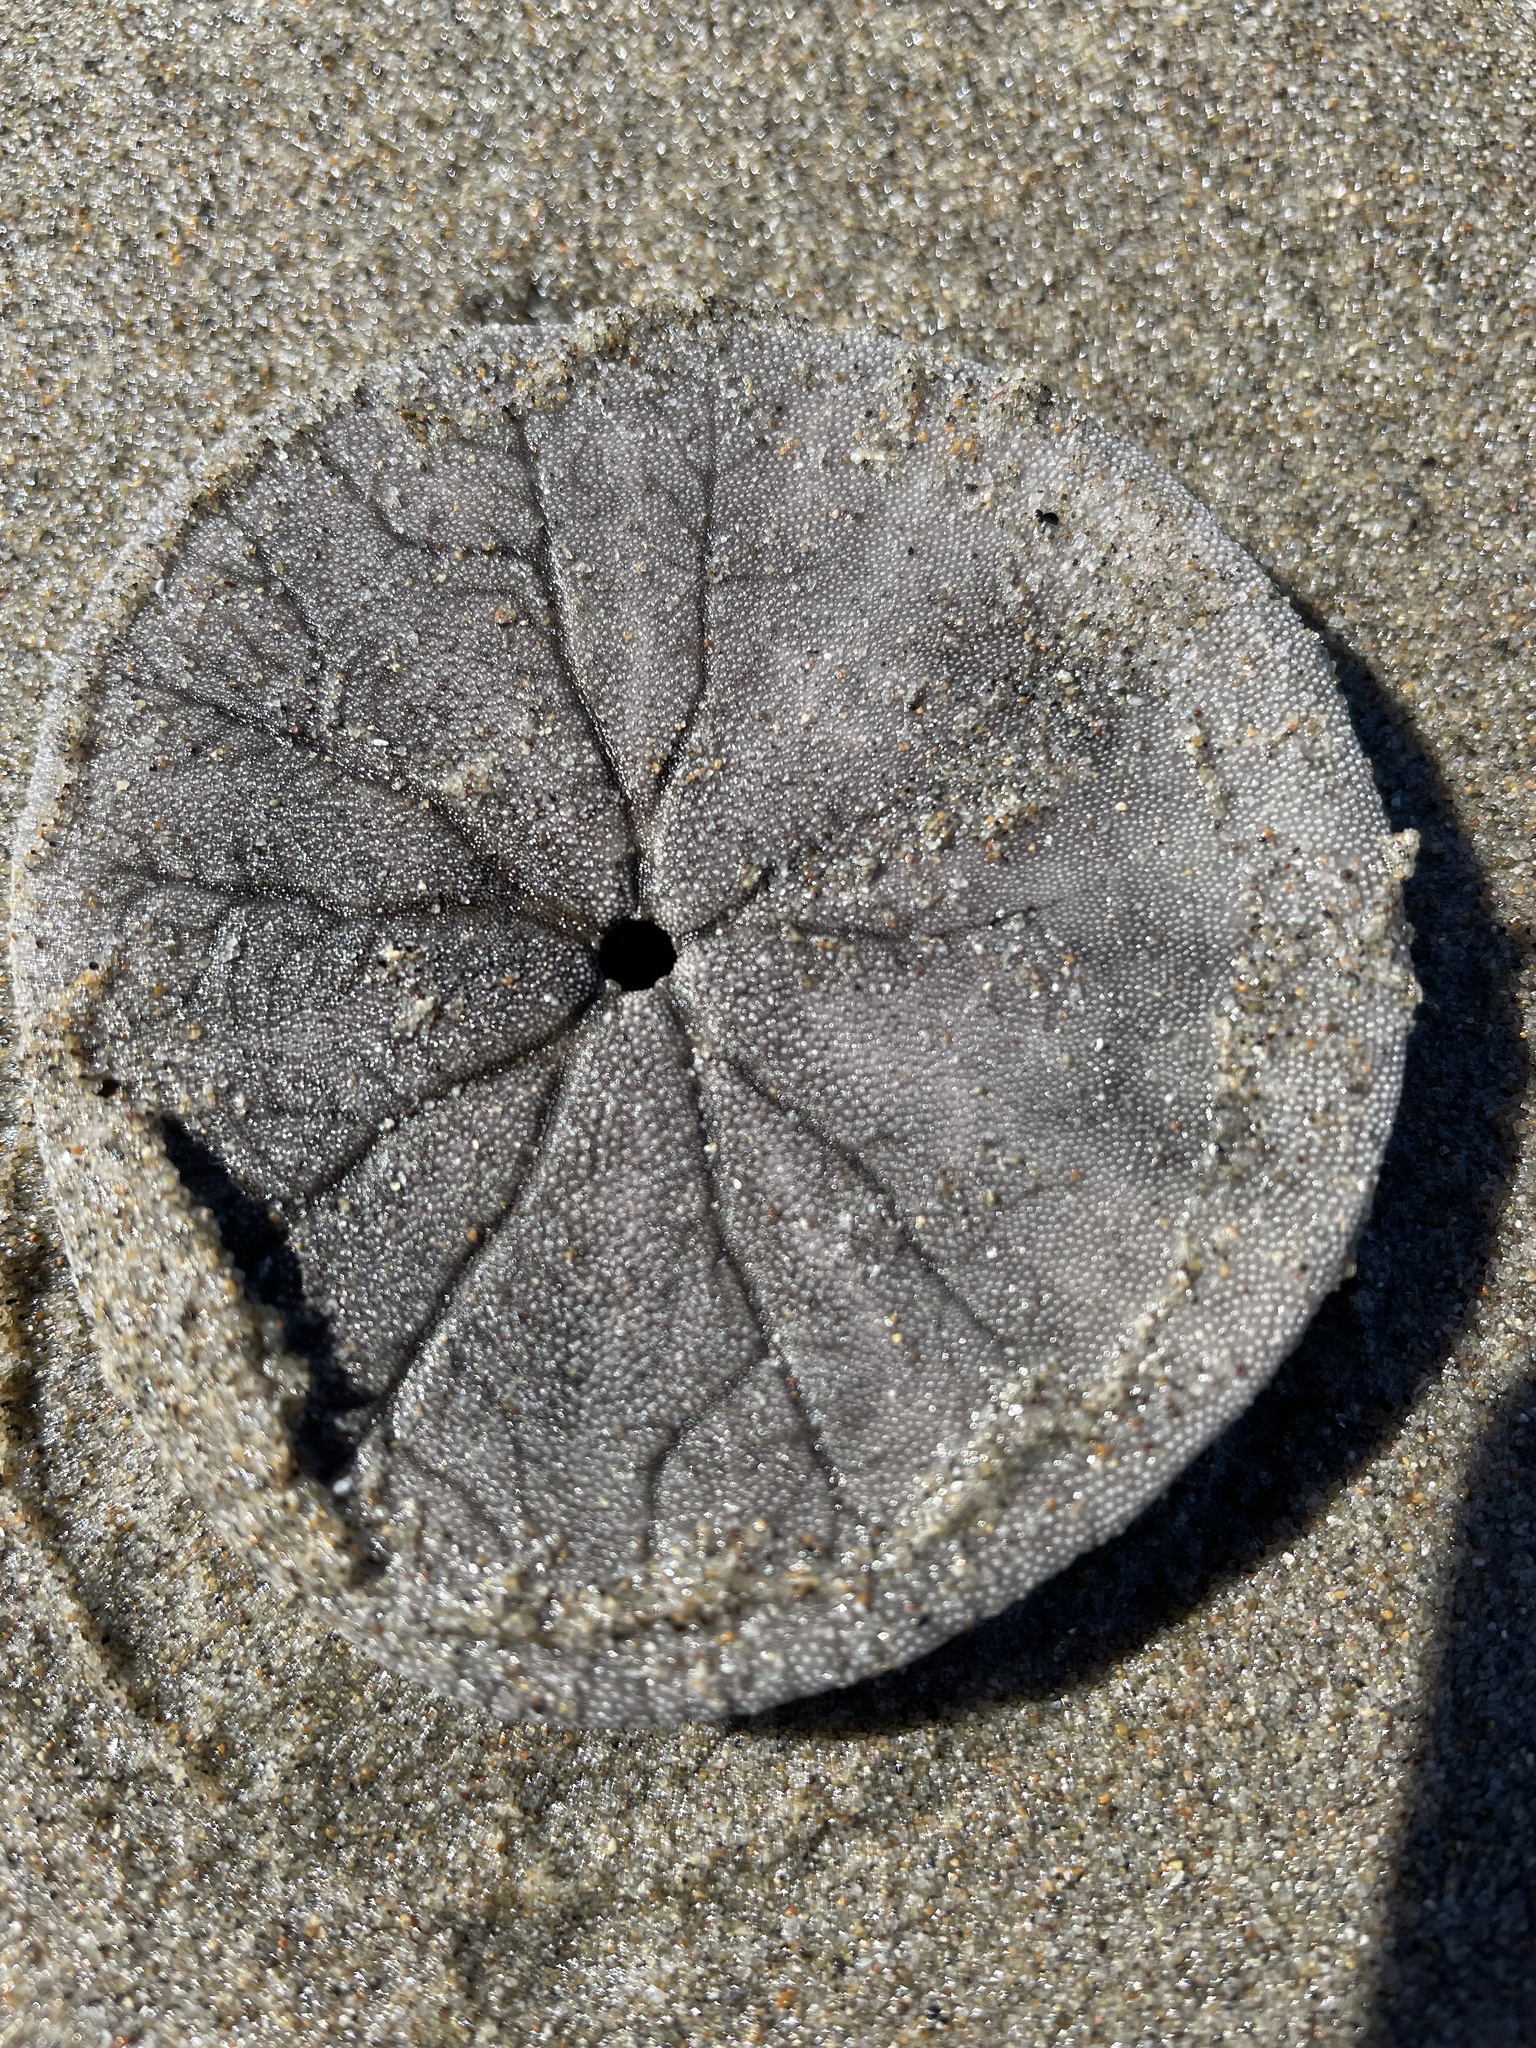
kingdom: Animalia
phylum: Echinodermata
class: Echinoidea
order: Echinolampadacea
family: Dendrasteridae
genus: Dendraster
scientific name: Dendraster excentricus
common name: Eccentric sand dollar sea urchin
